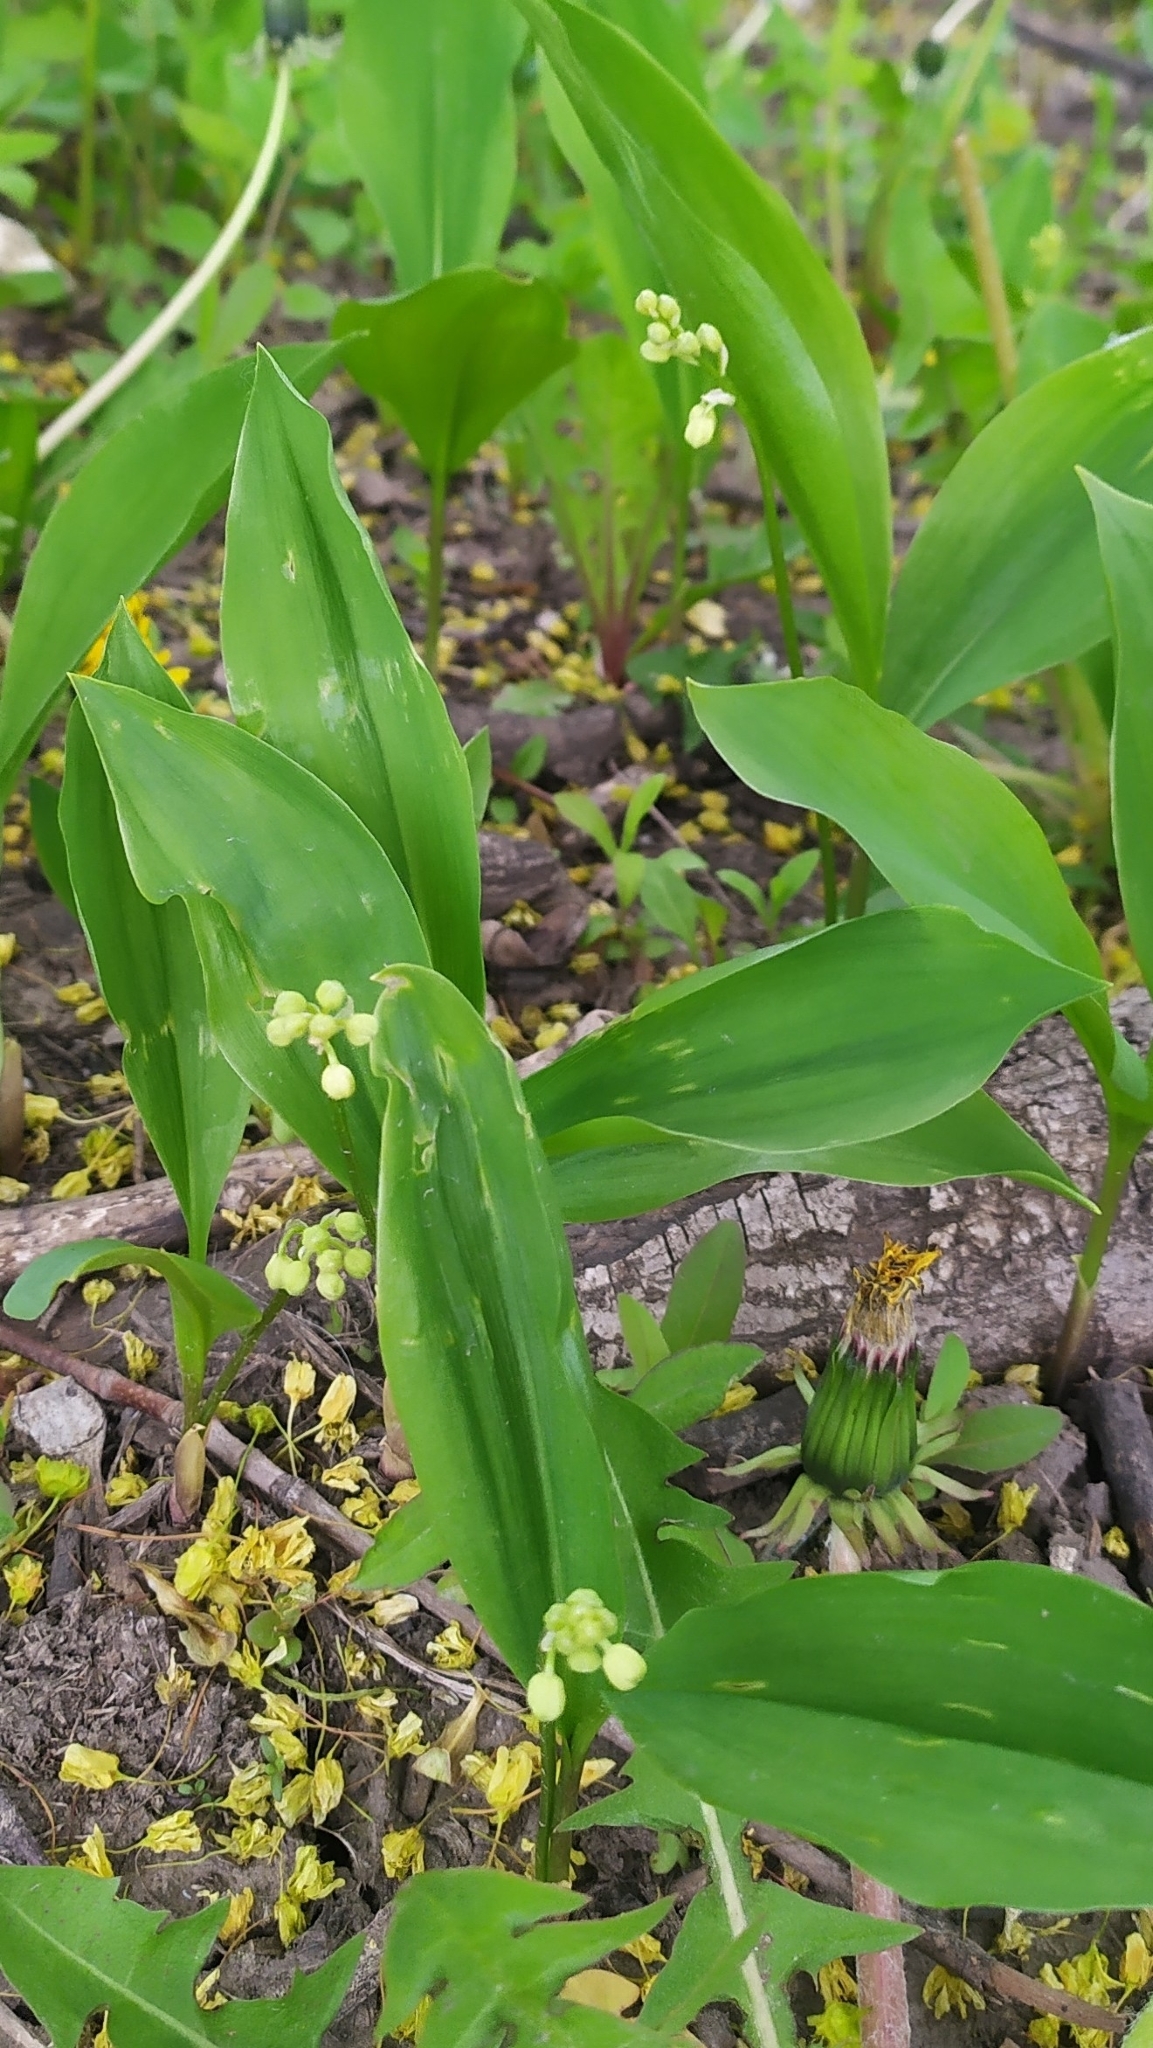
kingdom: Plantae
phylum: Tracheophyta
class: Liliopsida
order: Asparagales
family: Asparagaceae
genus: Convallaria
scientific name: Convallaria majalis
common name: Lily-of-the-valley
